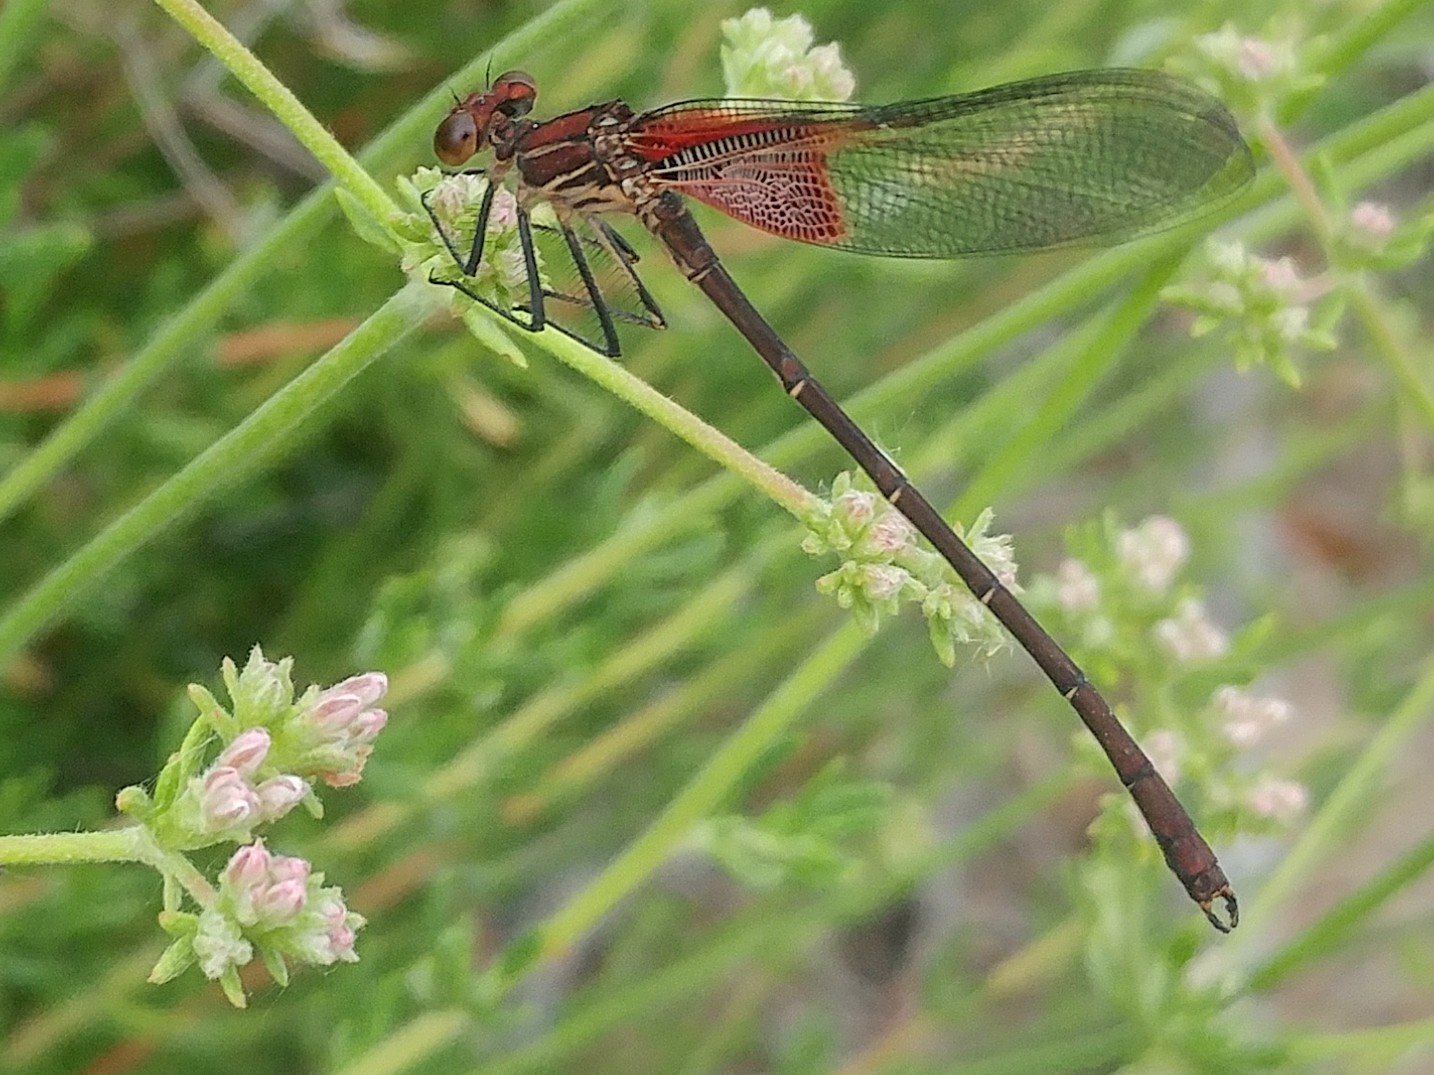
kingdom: Animalia
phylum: Arthropoda
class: Insecta
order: Odonata
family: Calopterygidae
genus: Hetaerina
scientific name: Hetaerina americana
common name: American rubyspot
